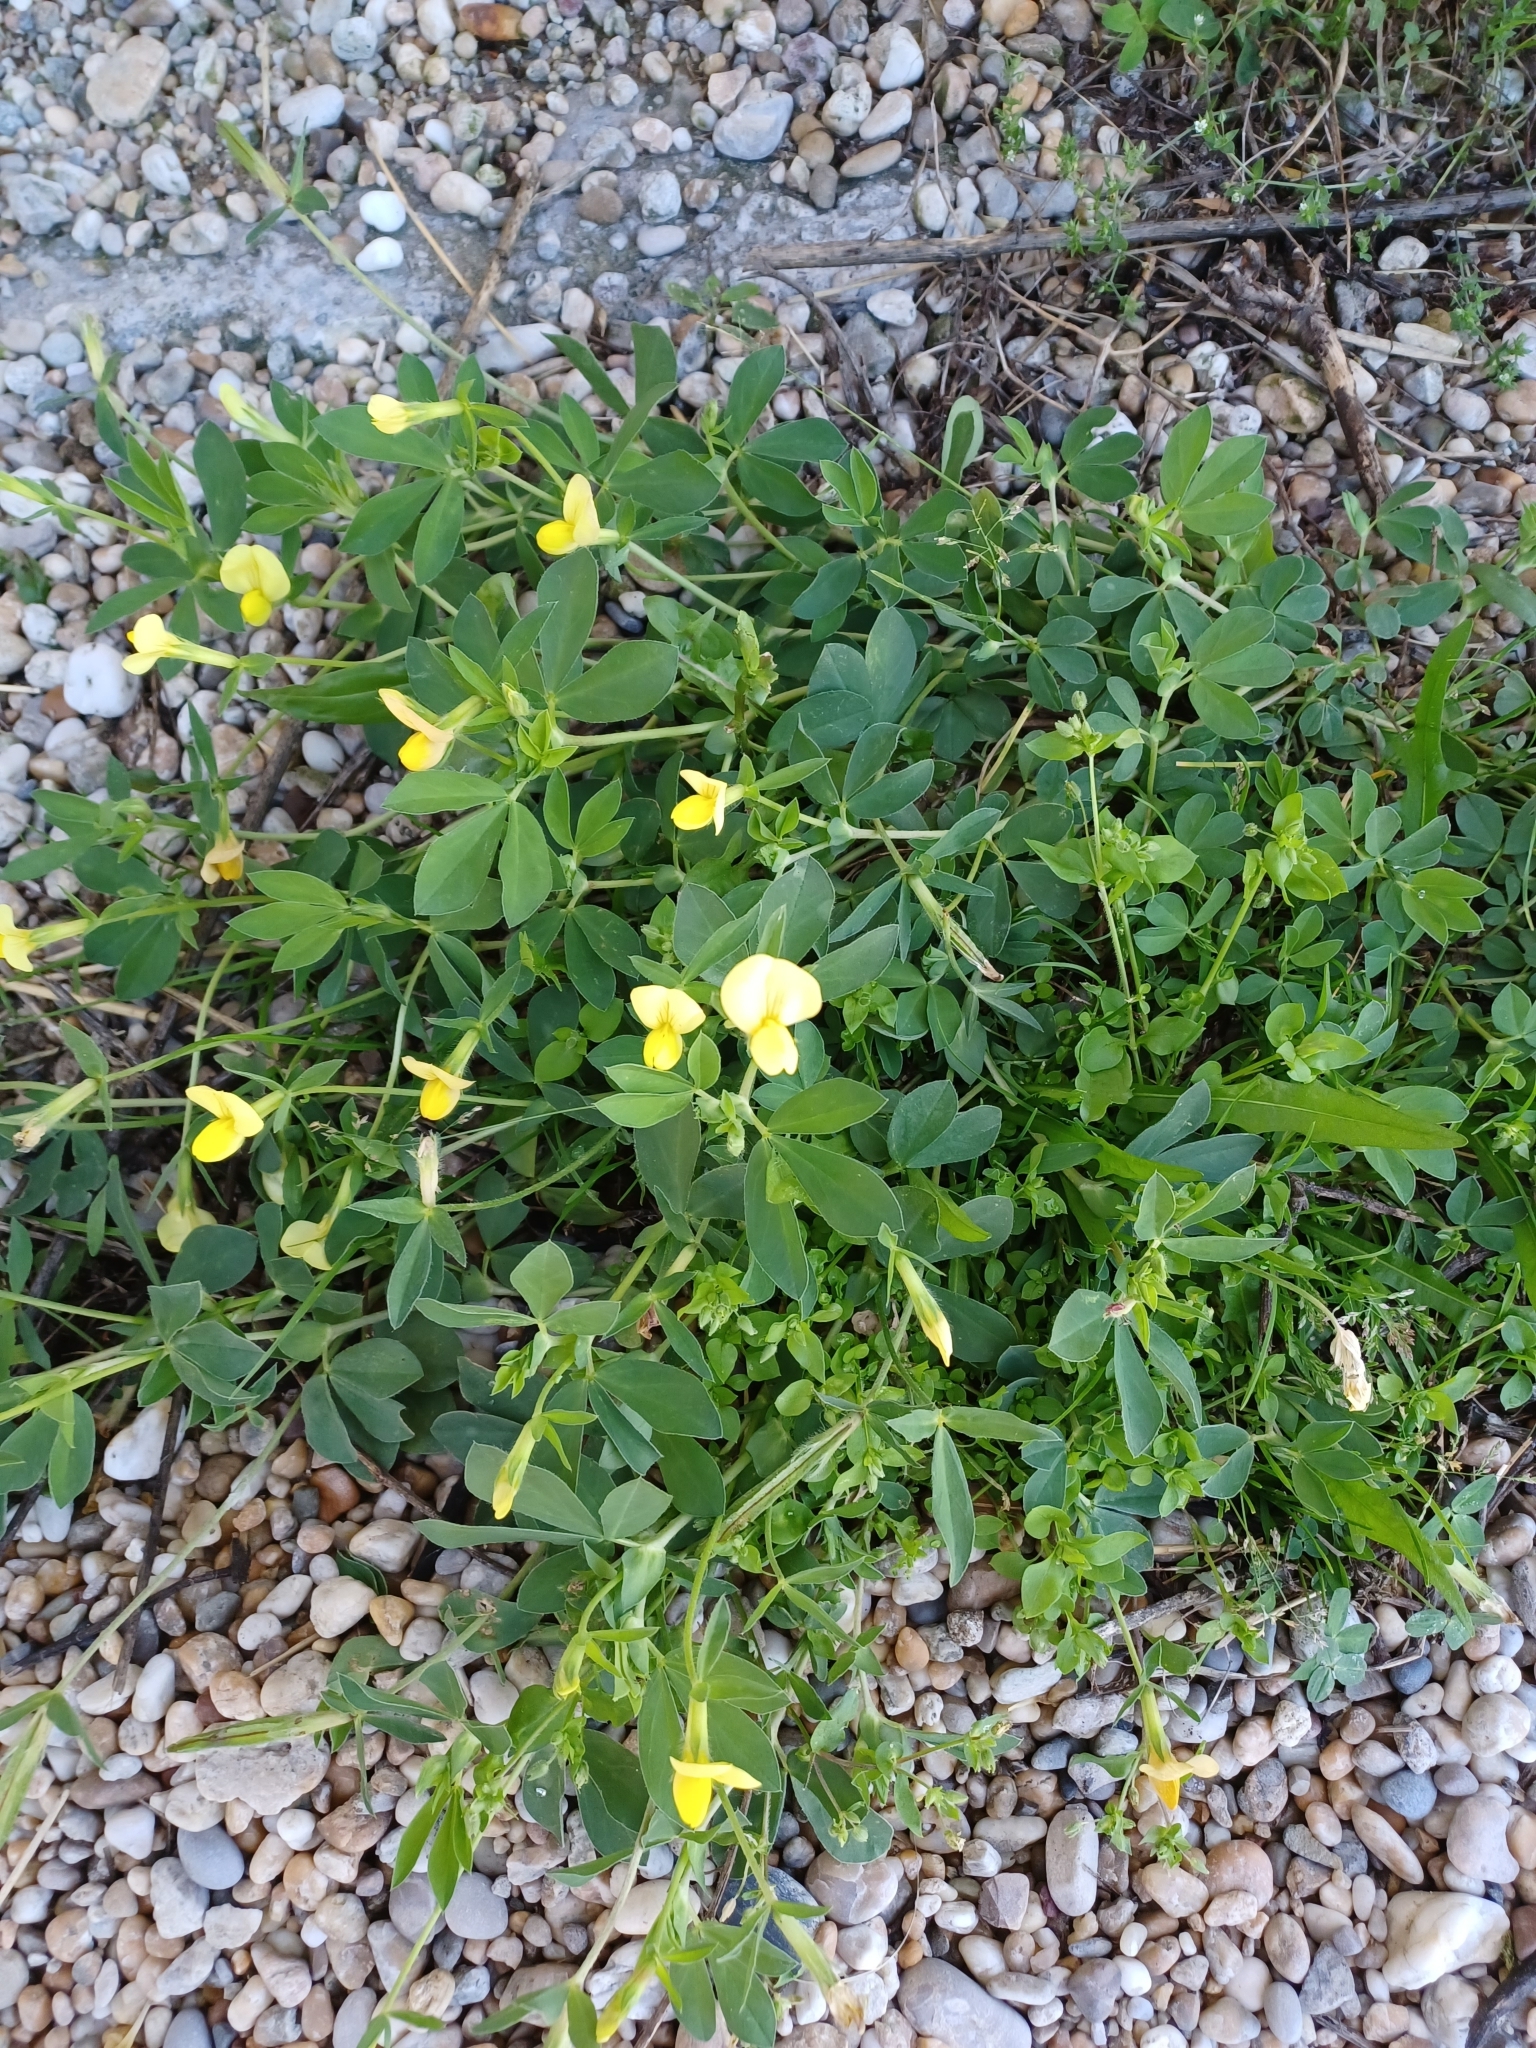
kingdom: Plantae
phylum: Tracheophyta
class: Magnoliopsida
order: Fabales
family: Fabaceae
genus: Lotus
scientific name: Lotus maritimus
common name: Dragon's-teeth
